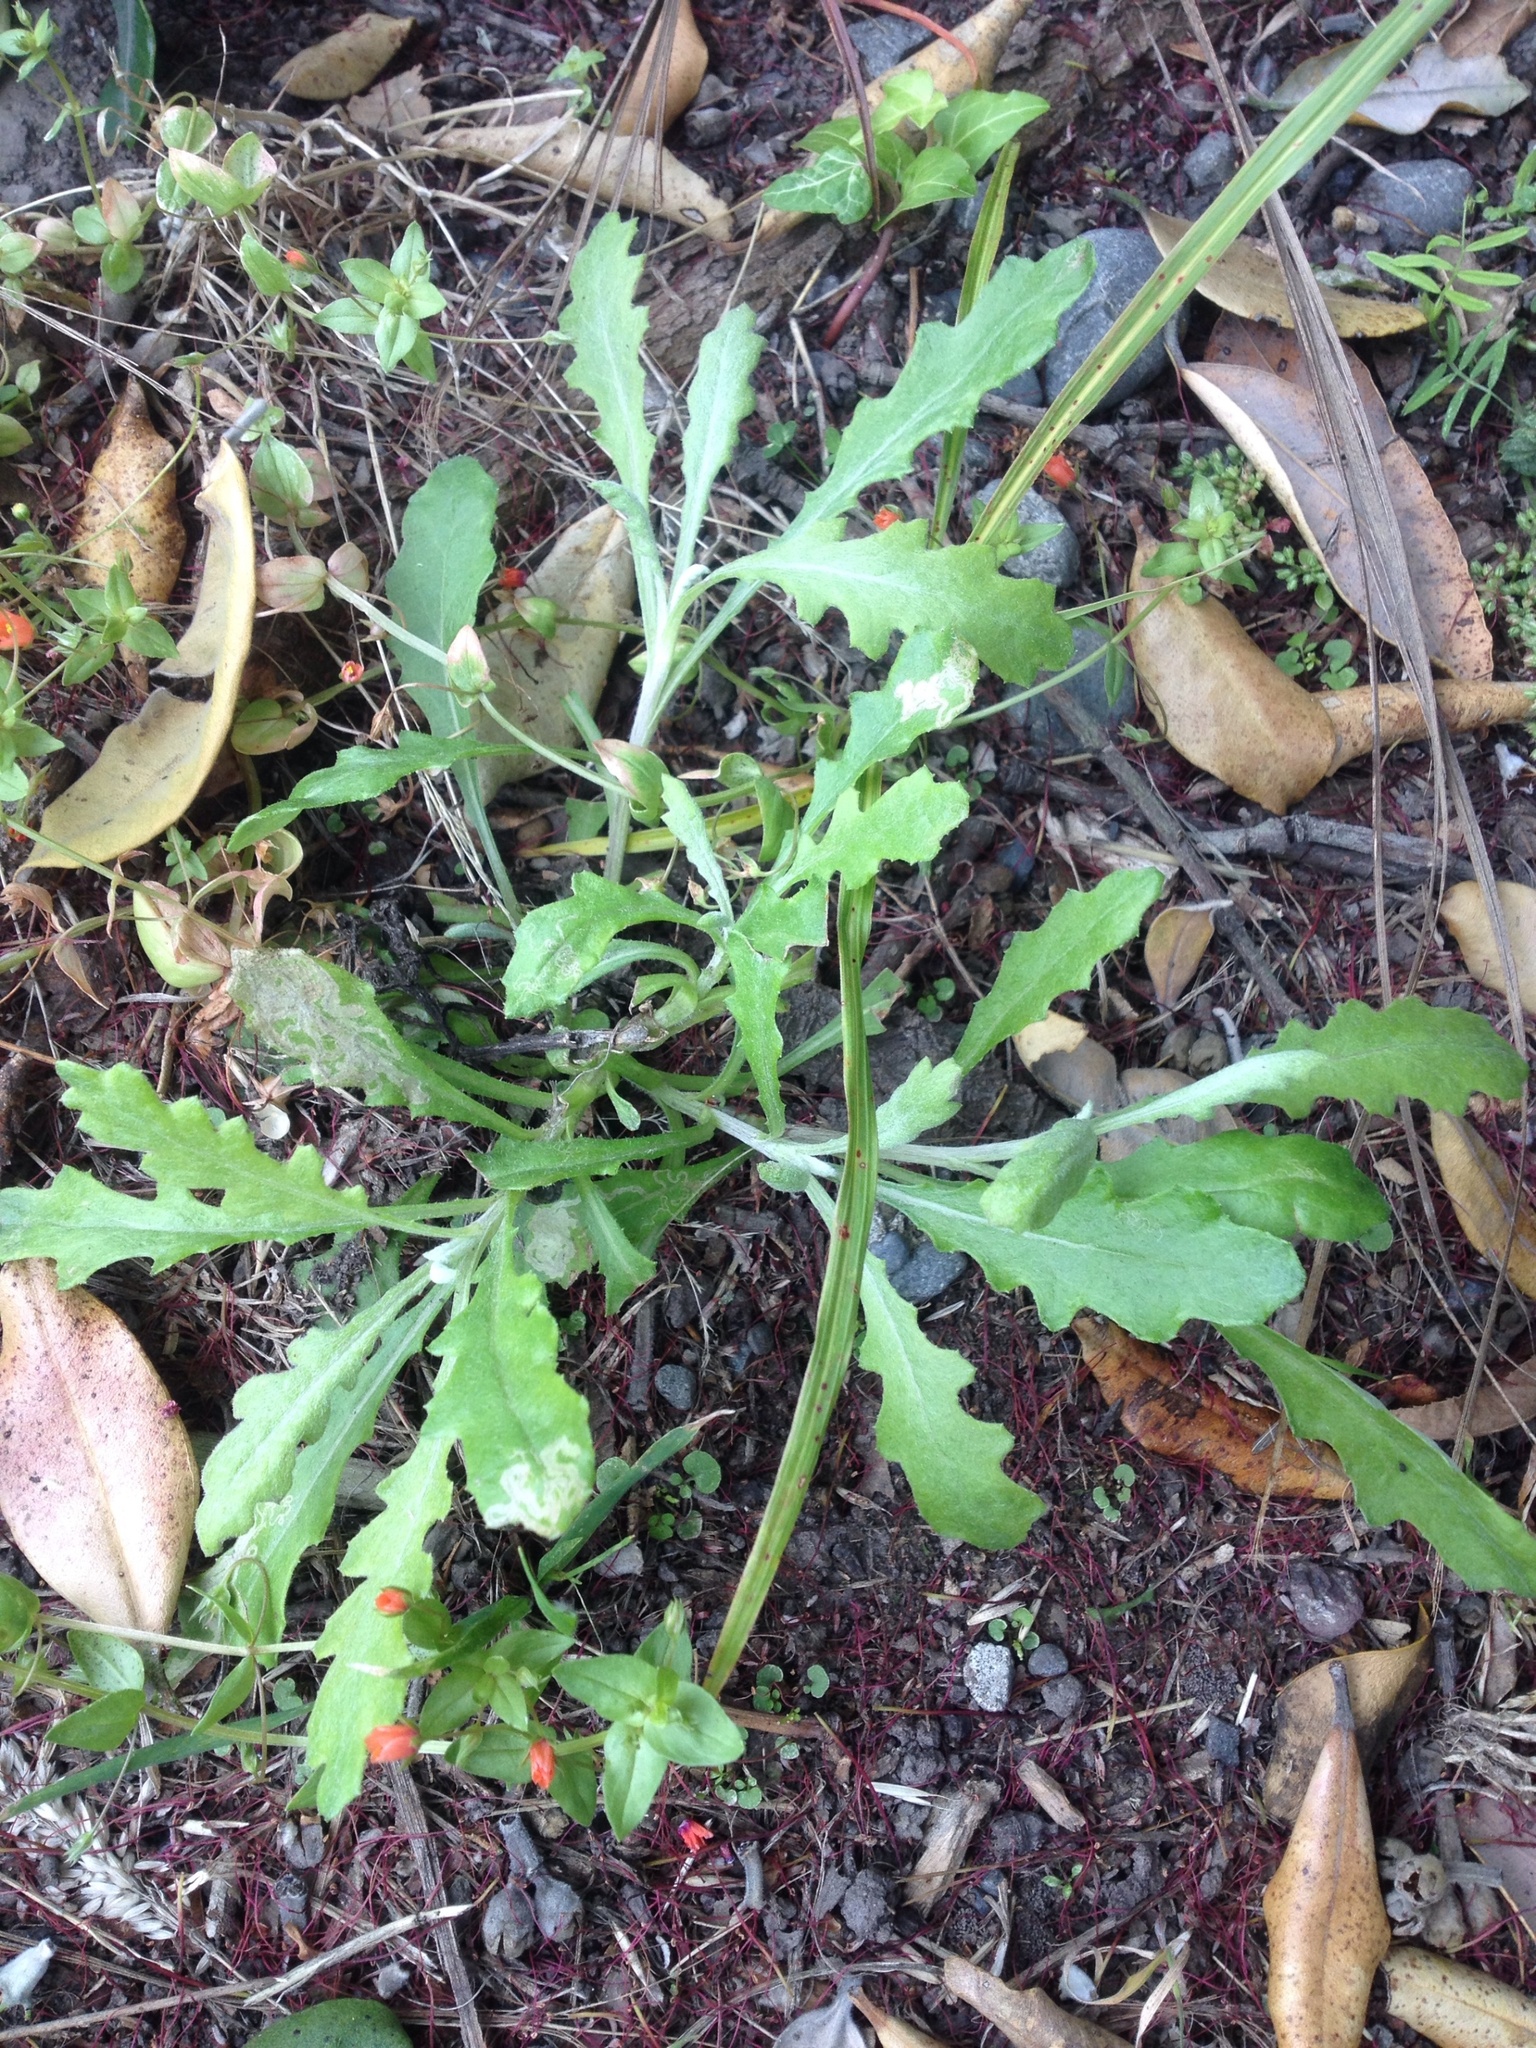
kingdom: Plantae
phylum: Tracheophyta
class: Magnoliopsida
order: Asterales
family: Asteraceae
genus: Senecio
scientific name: Senecio glomeratus
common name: Cutleaf burnweed
